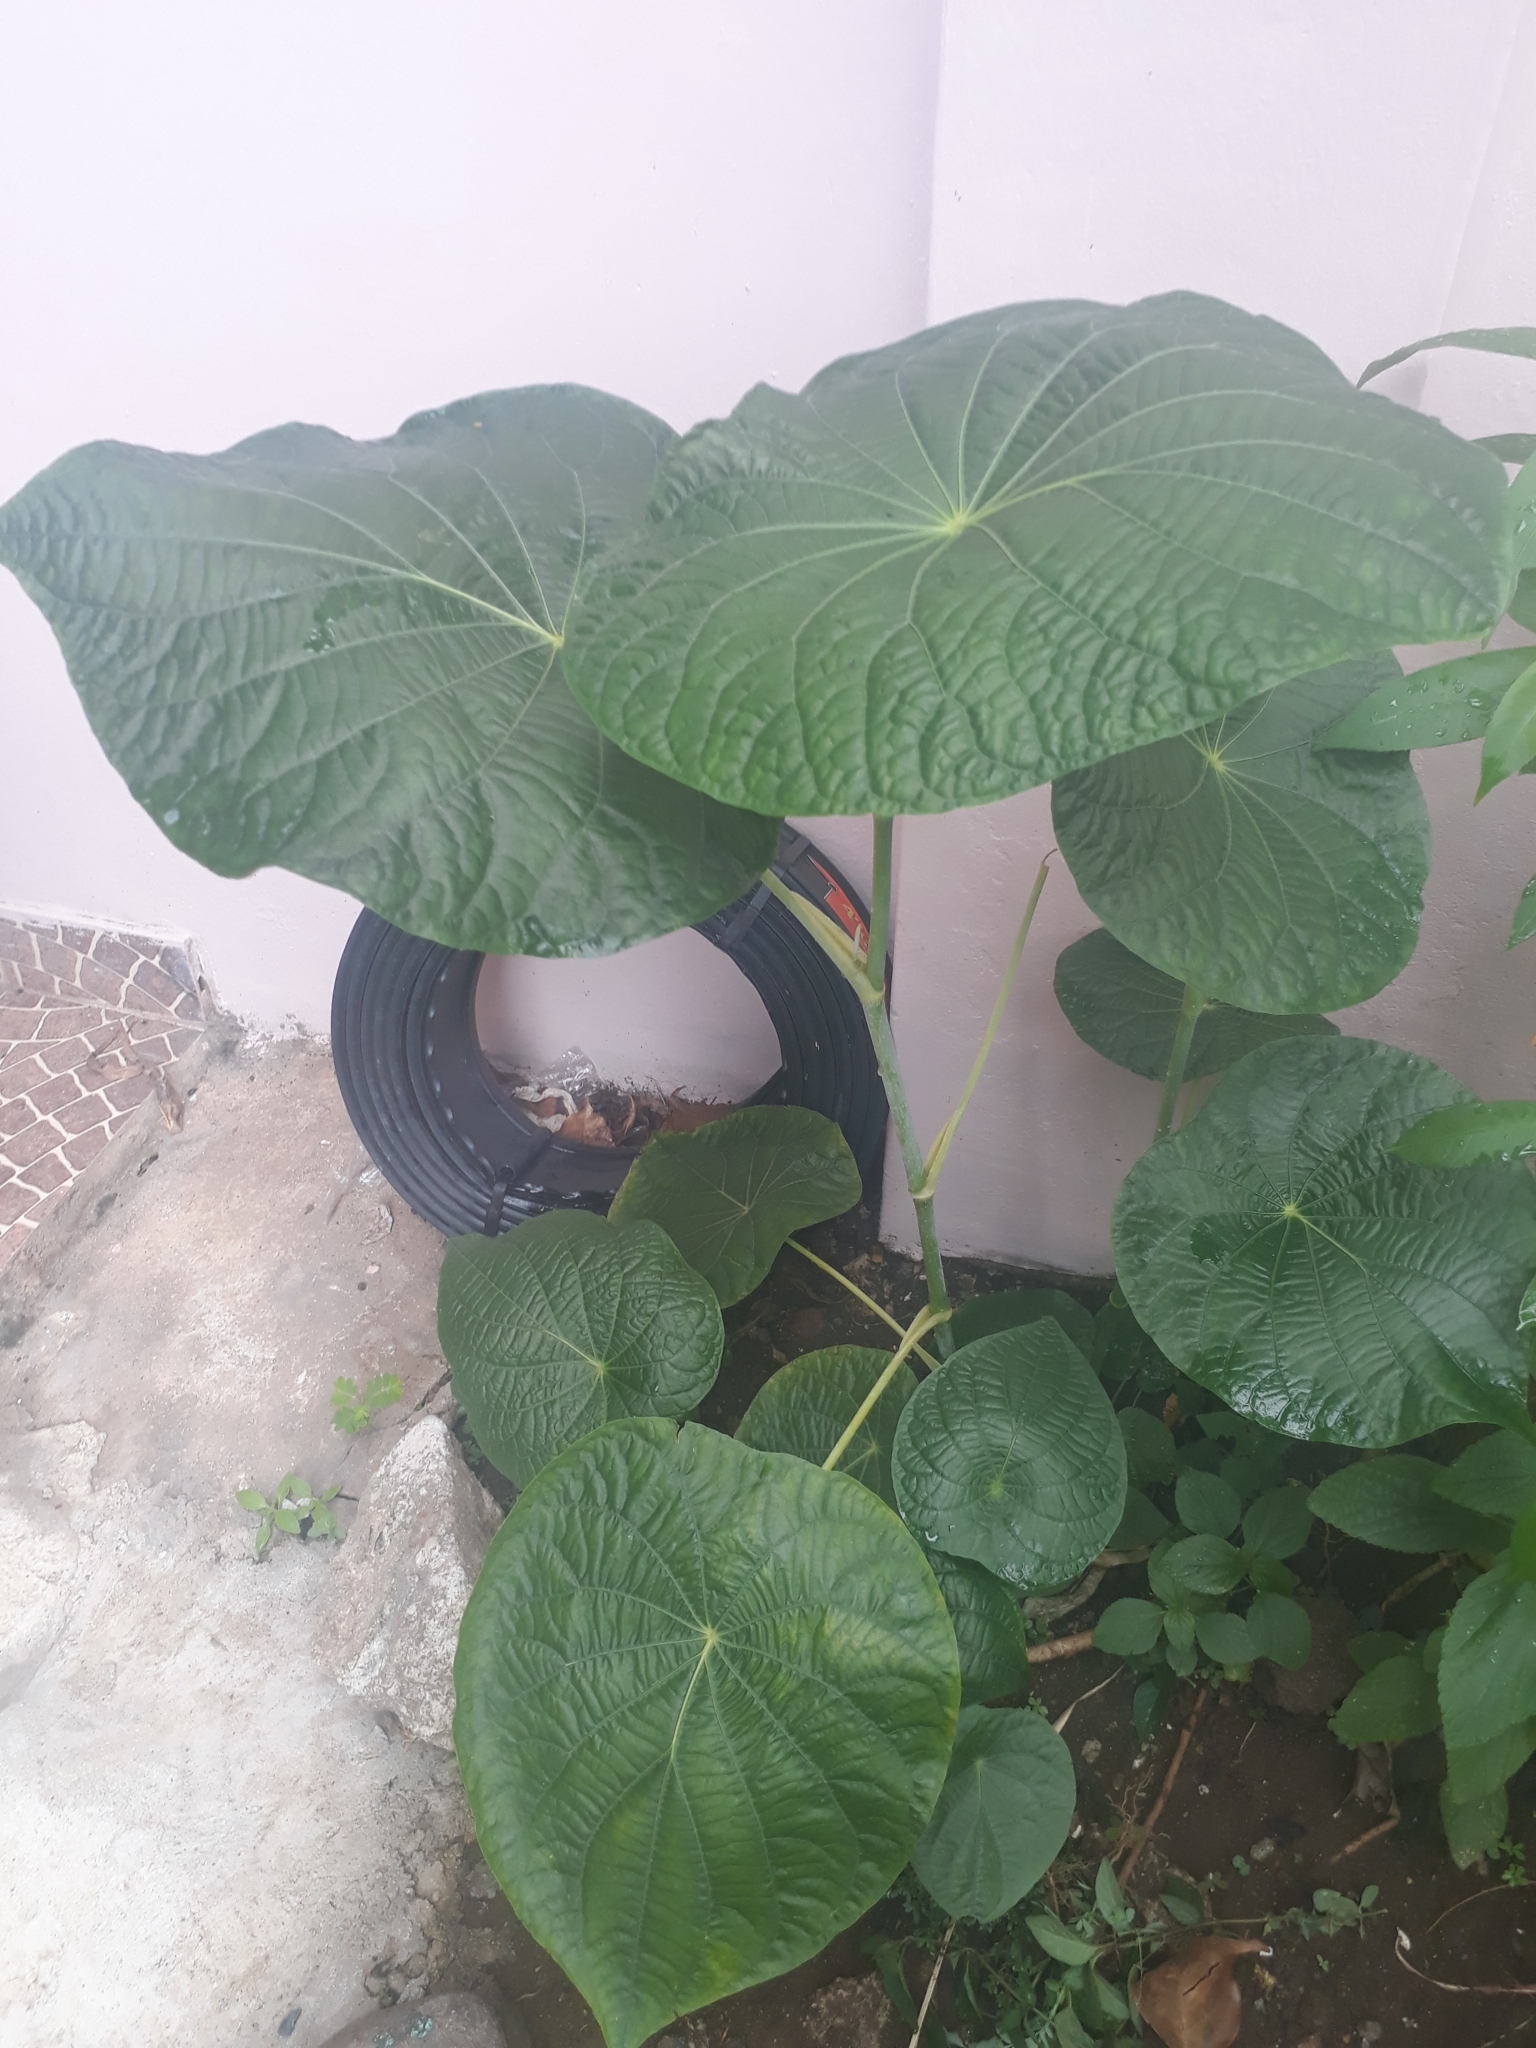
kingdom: Plantae
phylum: Tracheophyta
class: Magnoliopsida
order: Piperales
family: Piperaceae
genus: Piper
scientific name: Piper peltatum
